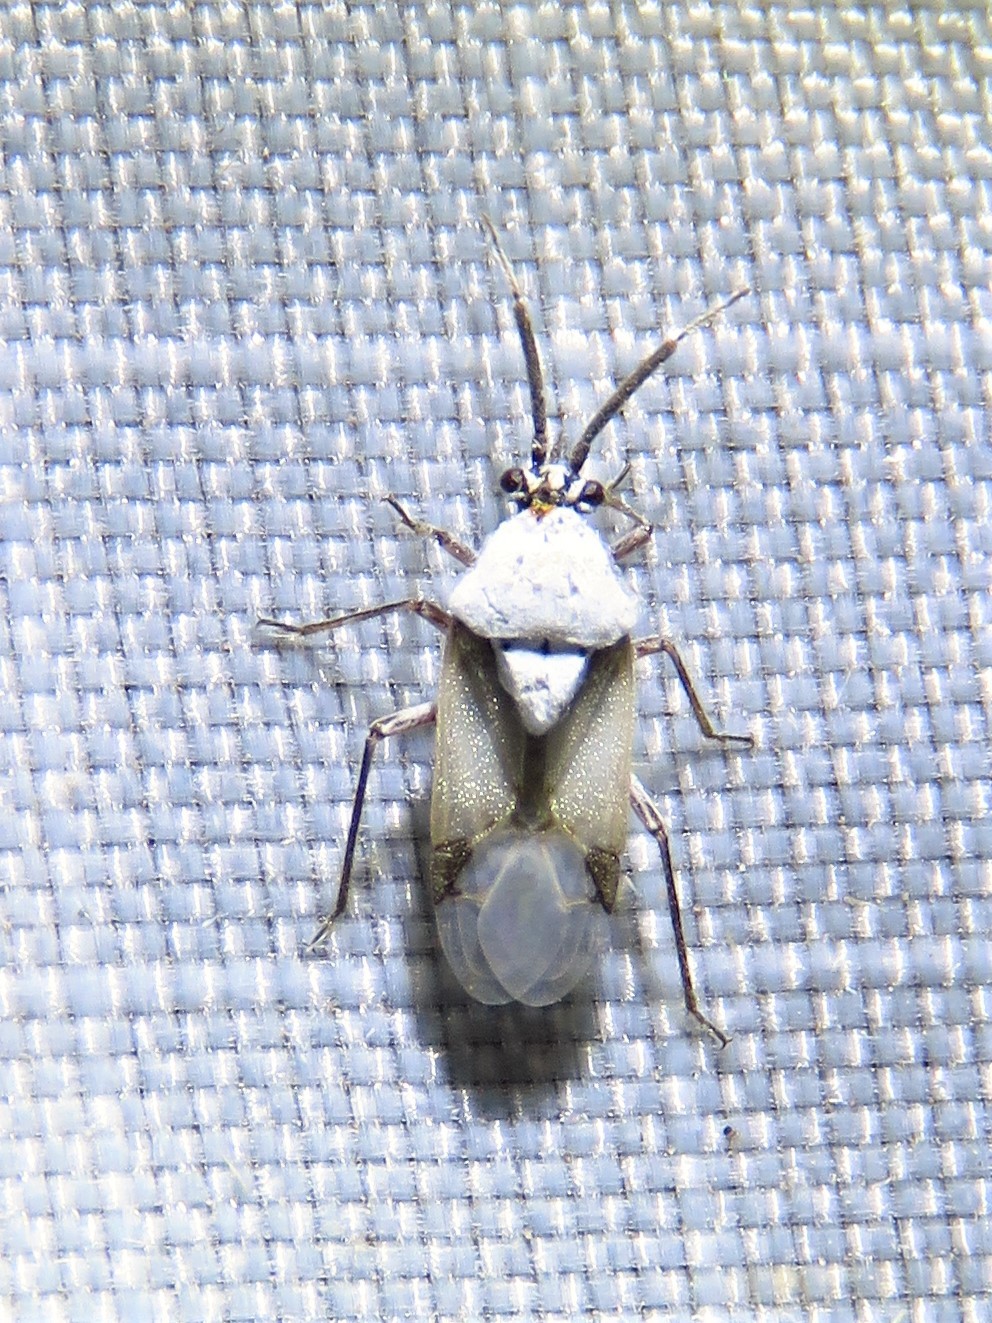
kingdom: Animalia
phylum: Arthropoda
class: Insecta
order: Hemiptera
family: Miridae
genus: Clivinema
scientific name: Clivinema
